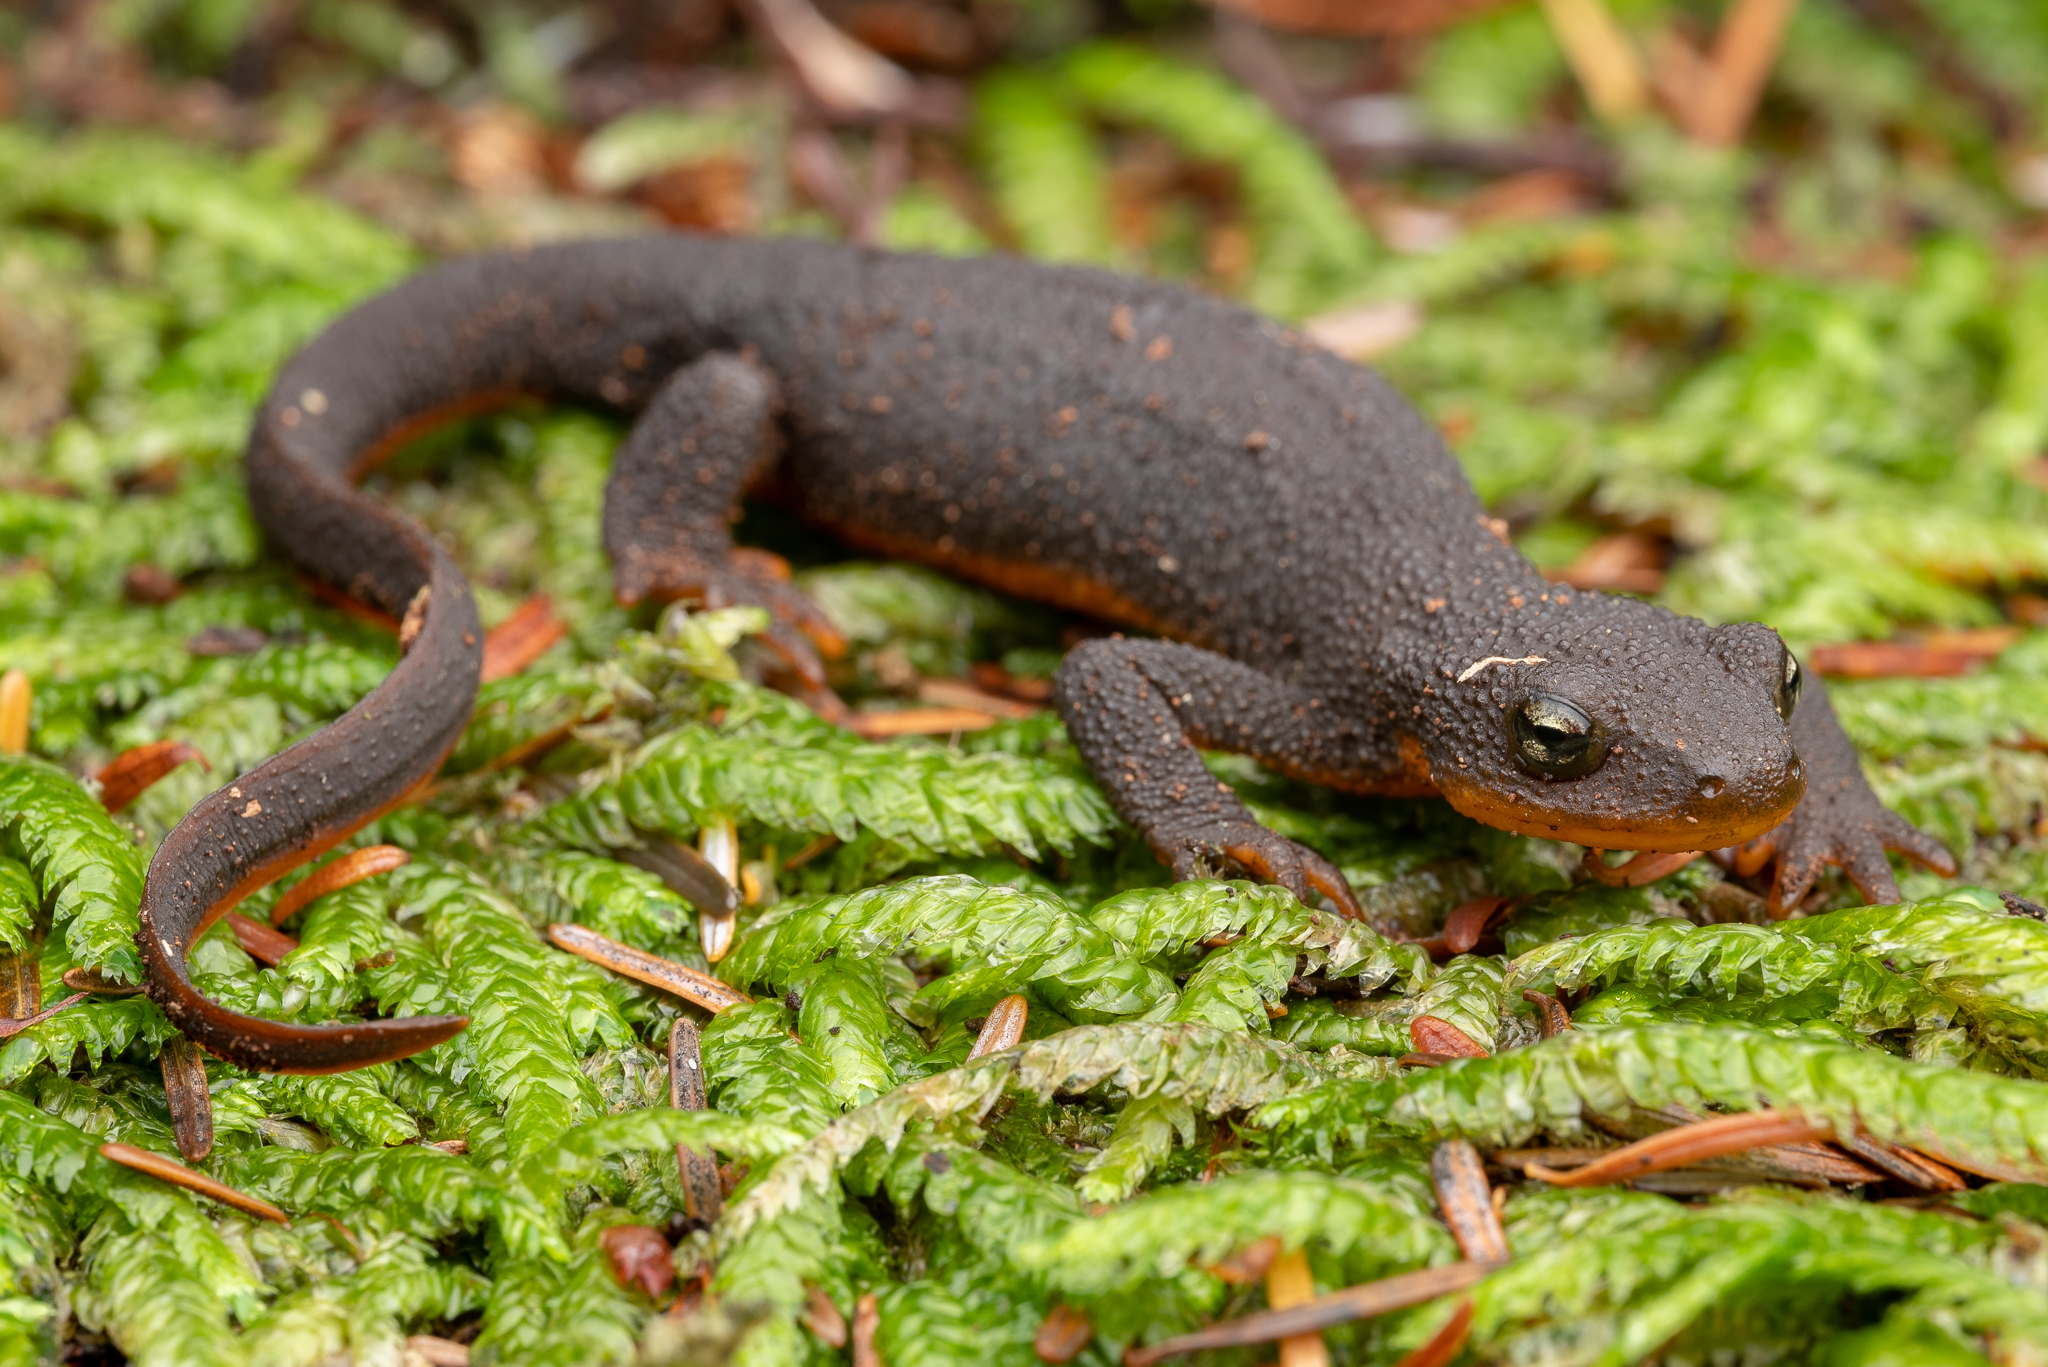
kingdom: Animalia
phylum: Chordata
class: Amphibia
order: Caudata
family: Salamandridae
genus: Taricha
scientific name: Taricha granulosa
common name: Roughskin newt
